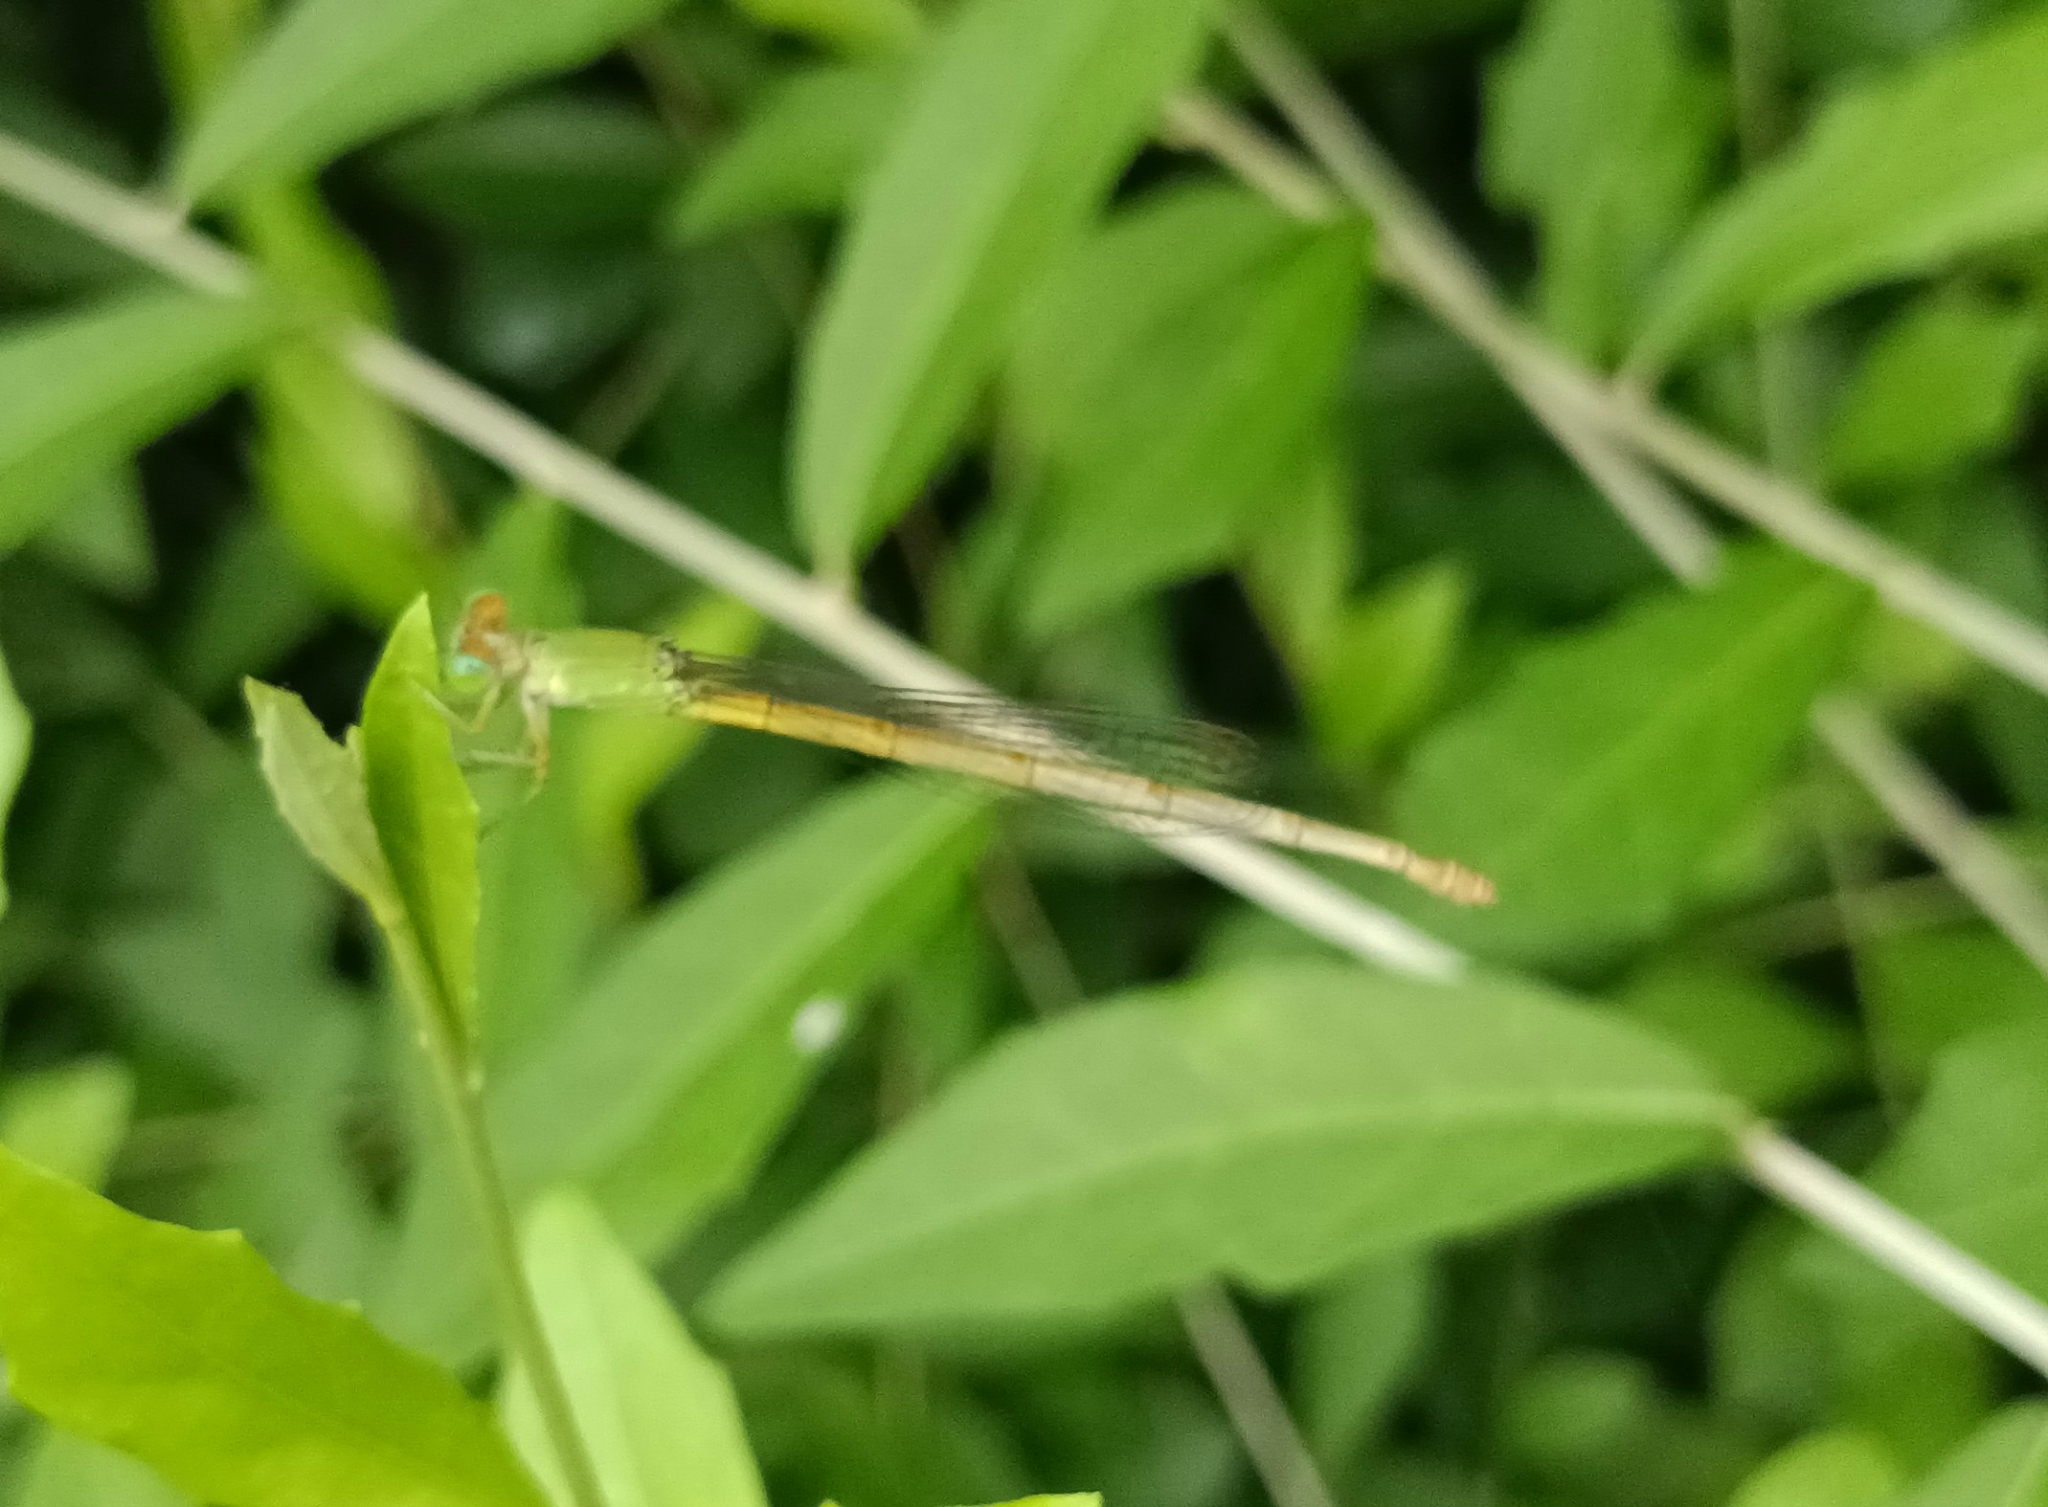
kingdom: Animalia
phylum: Arthropoda
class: Insecta
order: Odonata
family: Coenagrionidae
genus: Ceriagrion
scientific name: Ceriagrion coromandelianum
